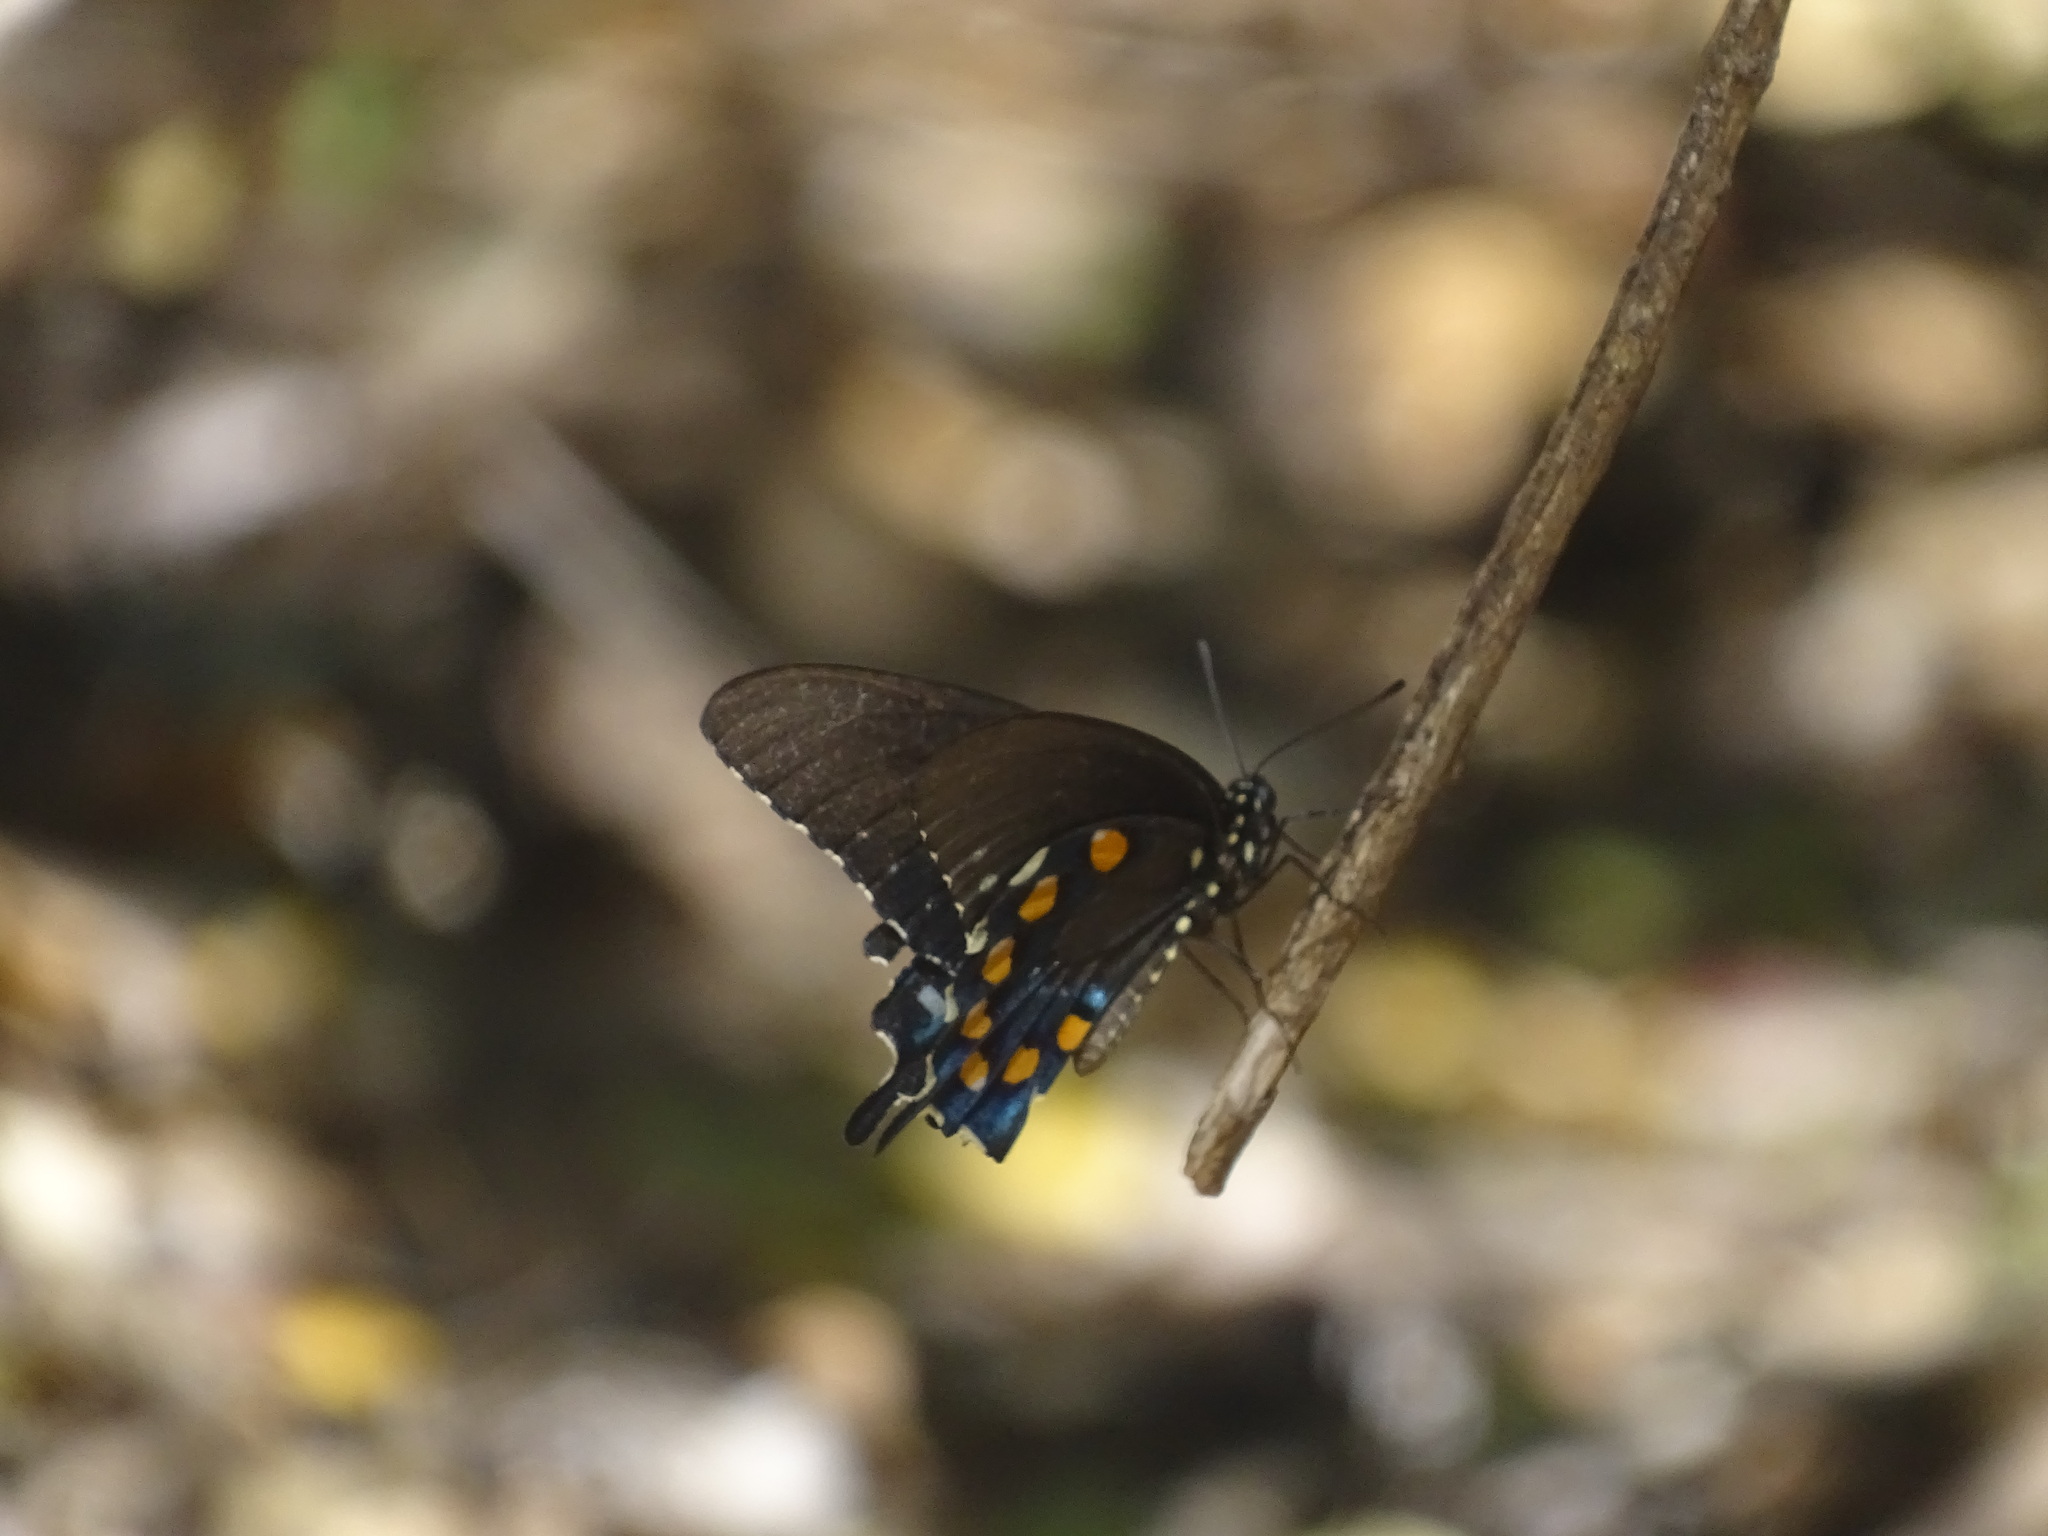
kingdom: Animalia
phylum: Arthropoda
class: Insecta
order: Lepidoptera
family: Papilionidae
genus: Battus
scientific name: Battus philenor
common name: Pipevine swallowtail
